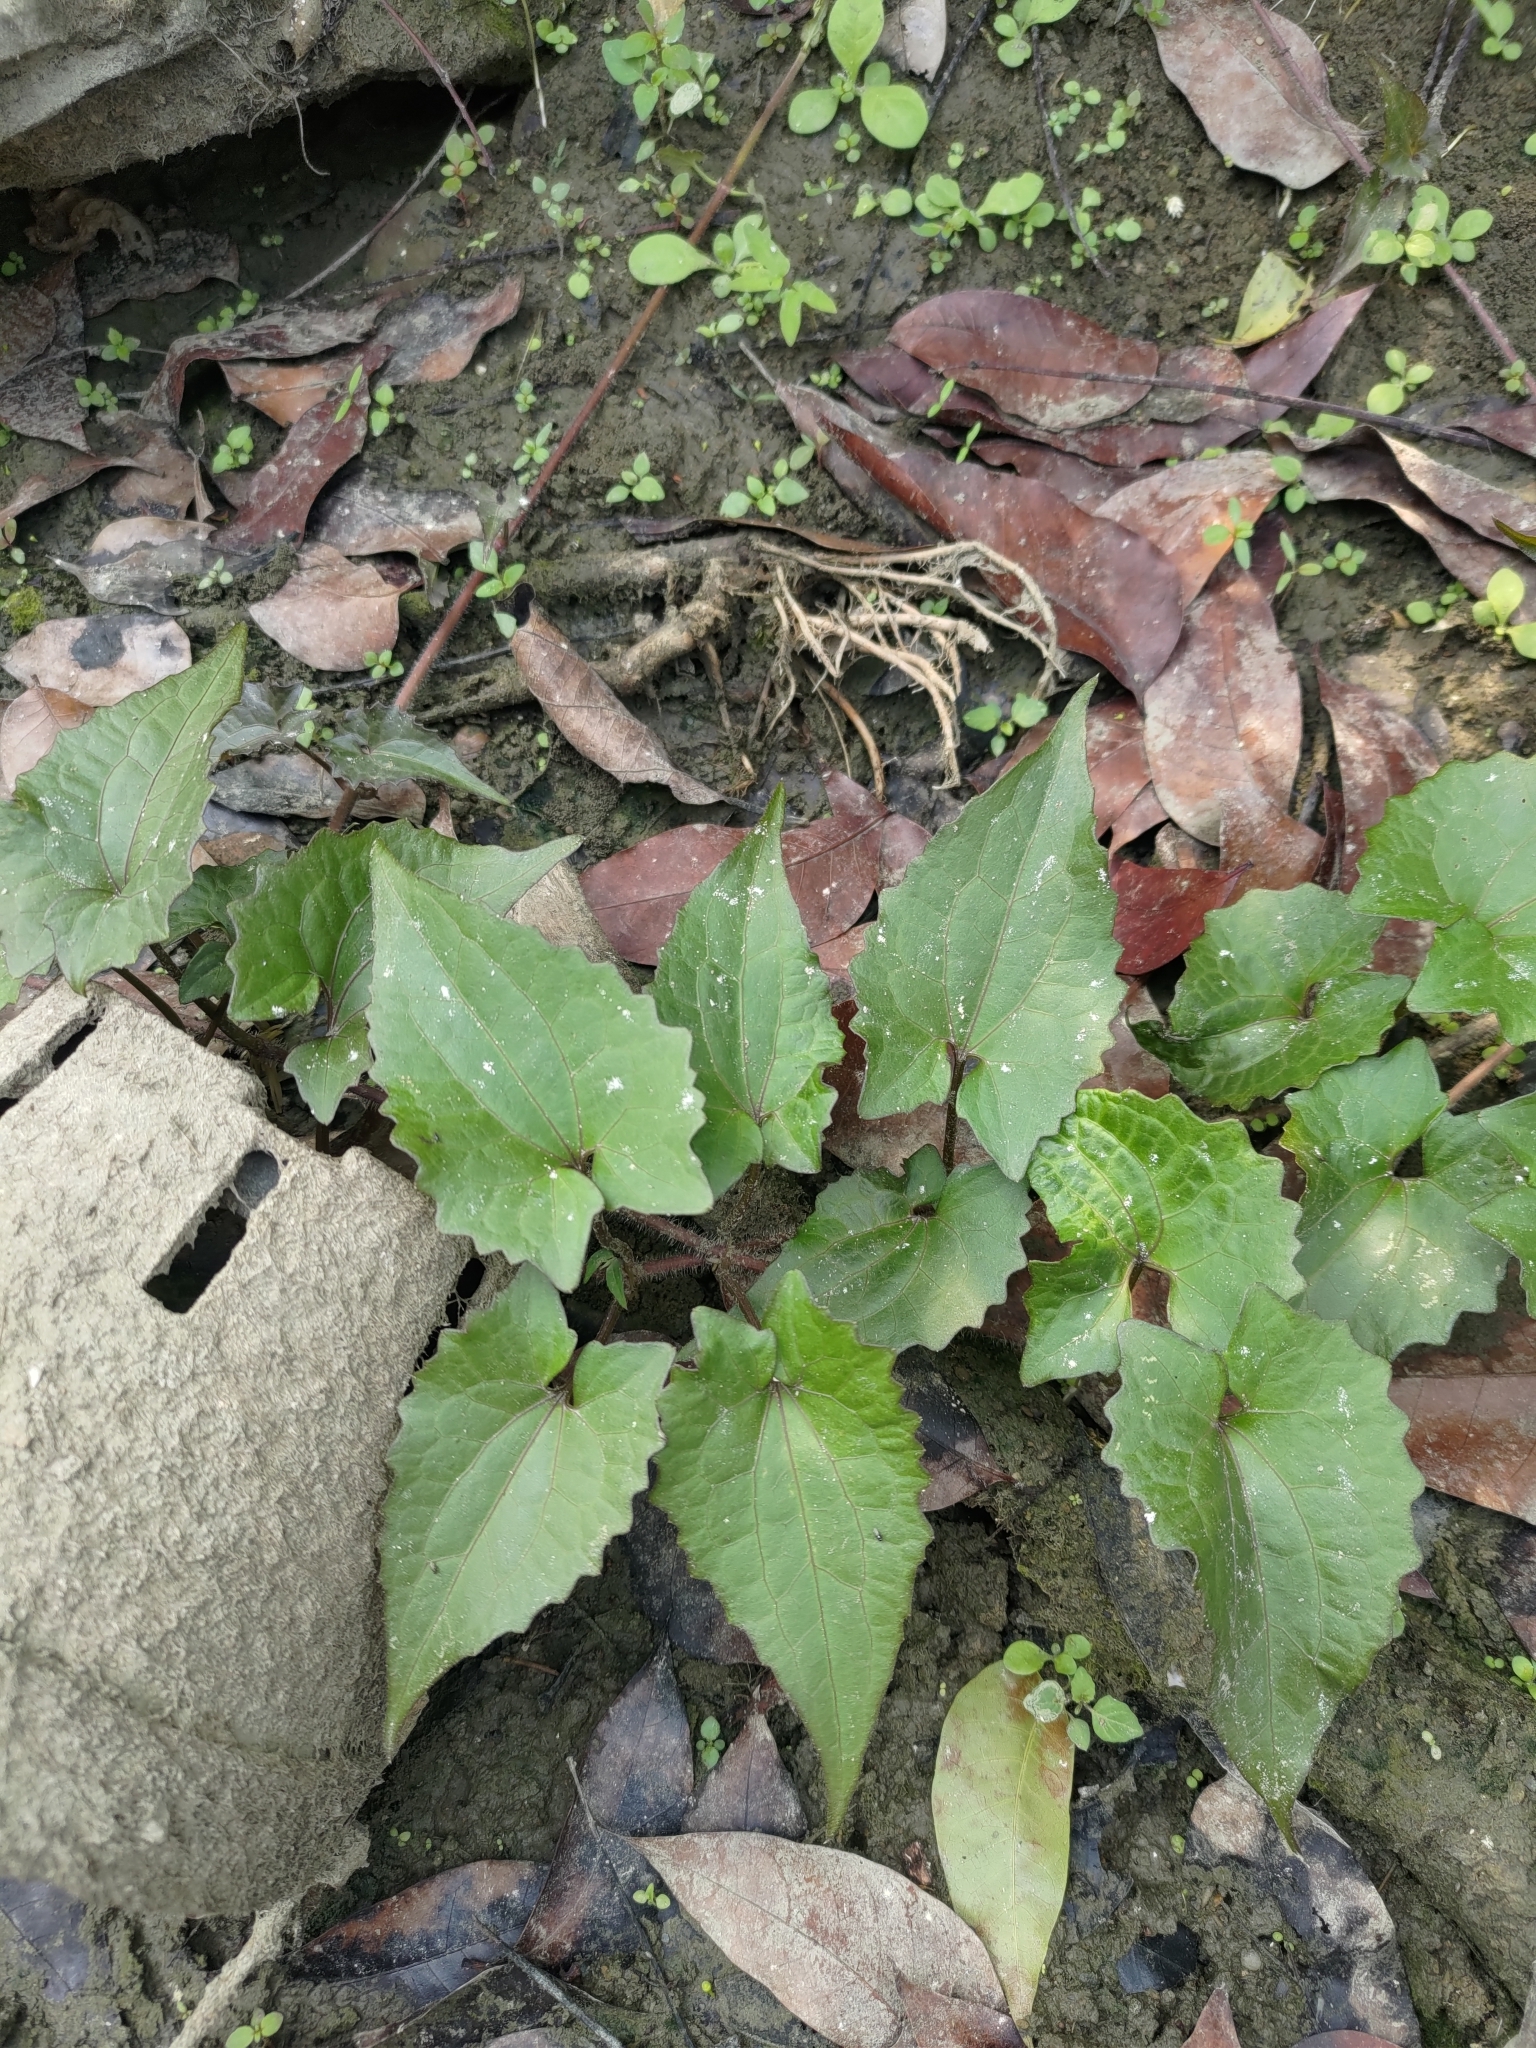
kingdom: Plantae
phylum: Tracheophyta
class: Magnoliopsida
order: Asterales
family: Asteraceae
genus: Mikania
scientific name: Mikania micrantha
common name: Mile-a-minute
